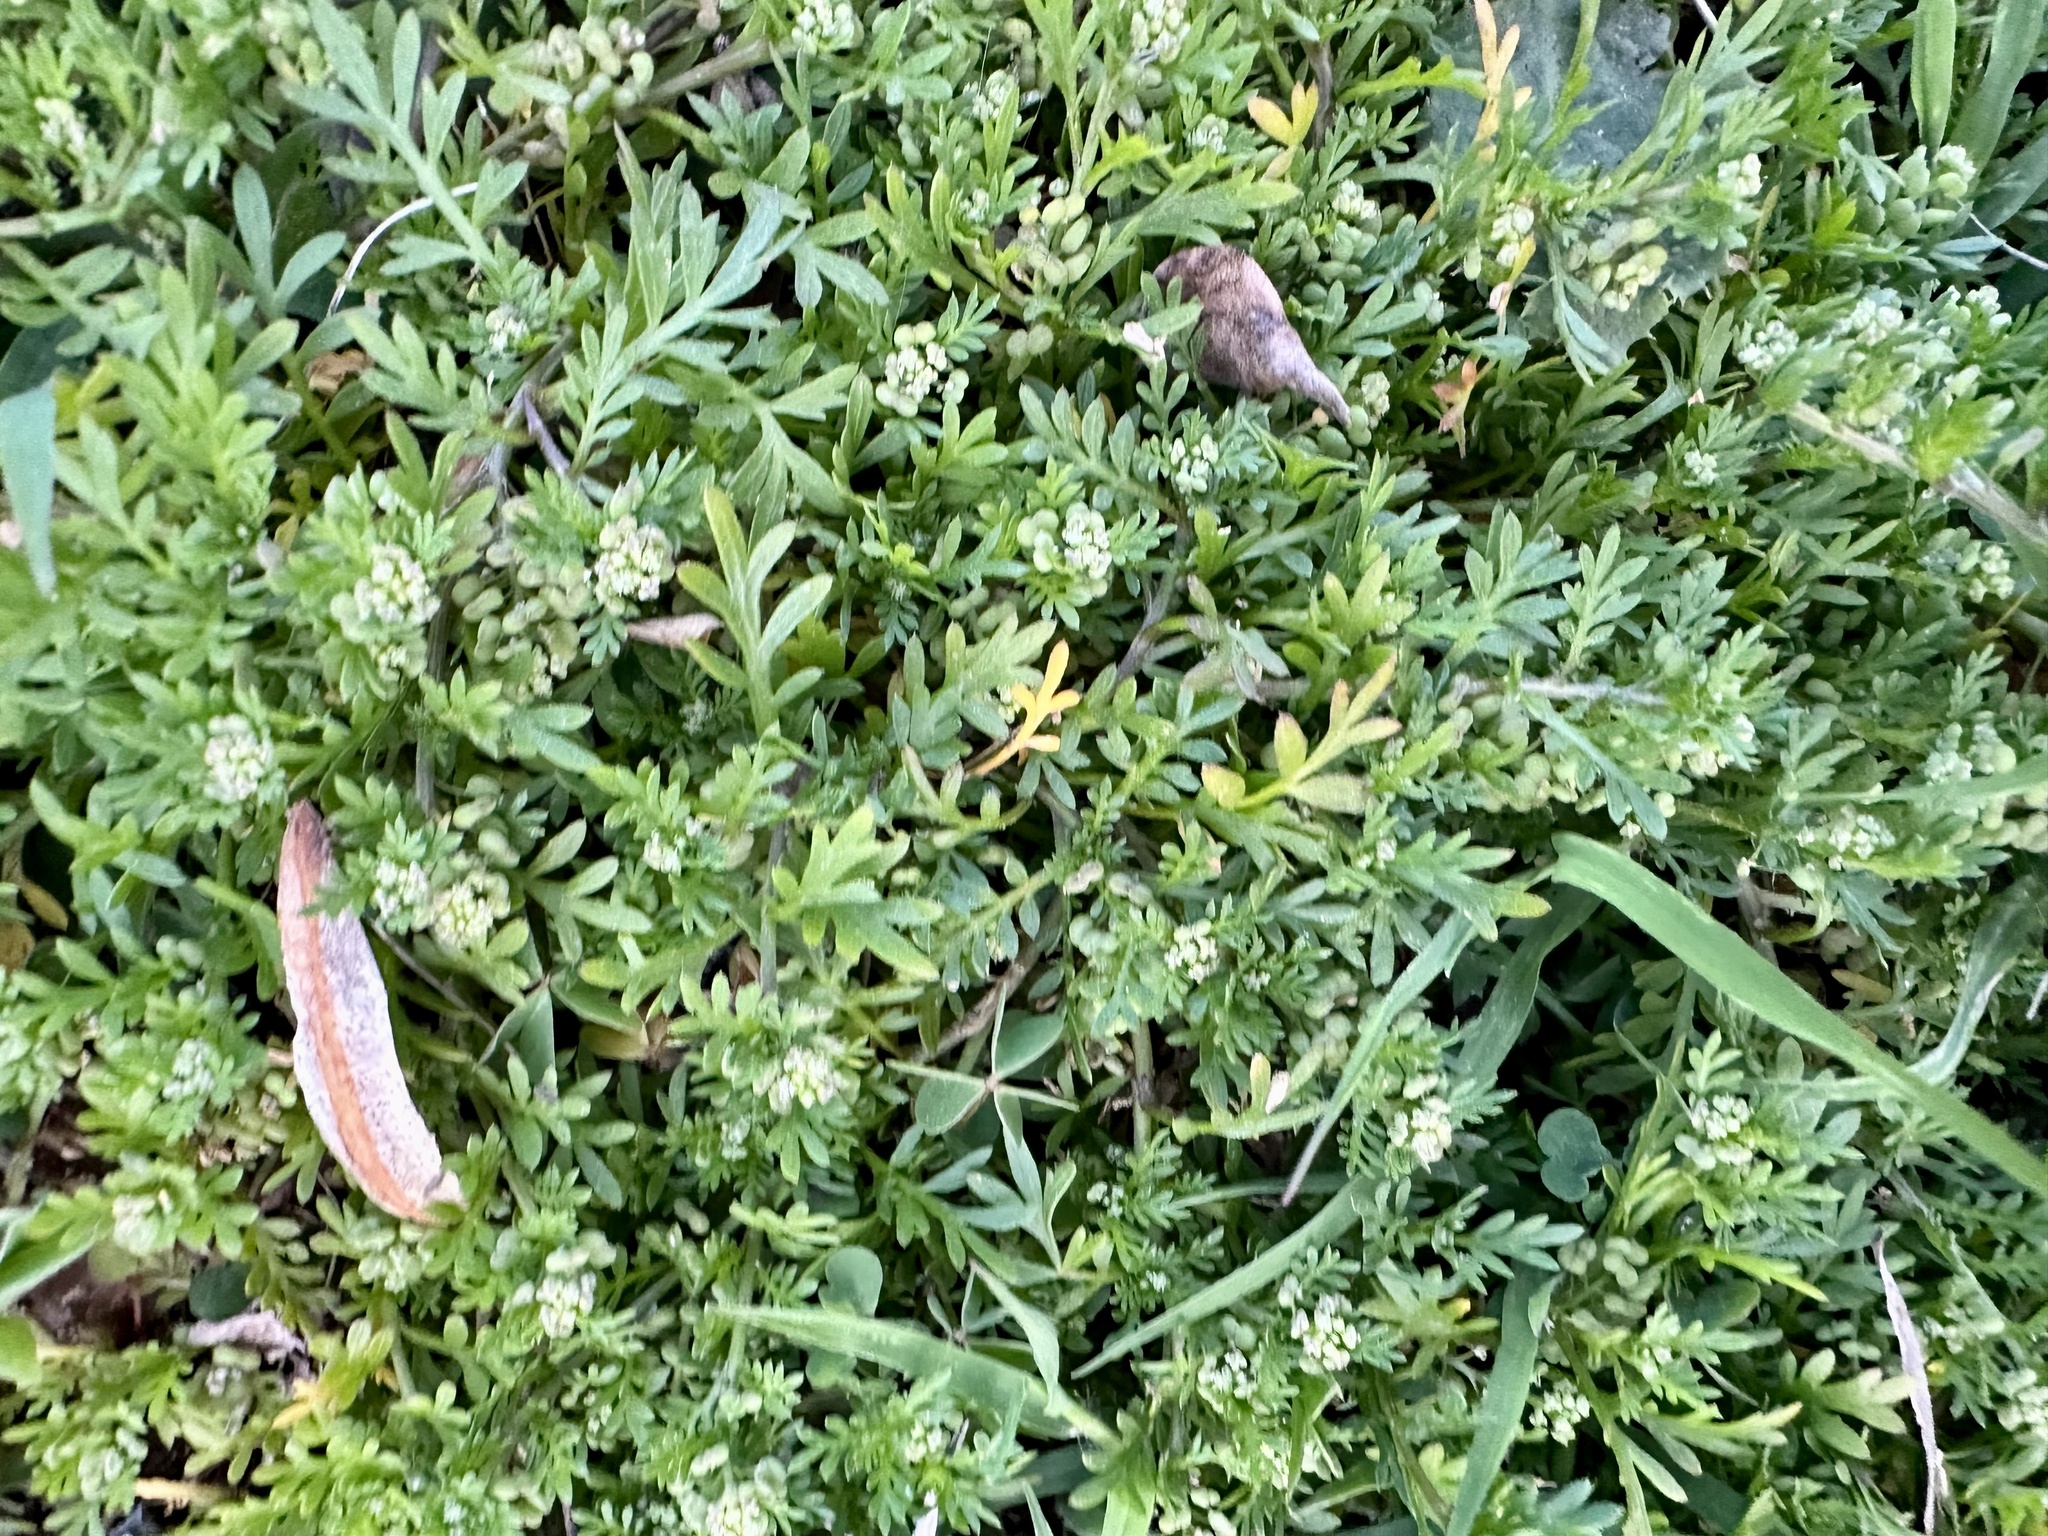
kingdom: Plantae
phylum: Tracheophyta
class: Magnoliopsida
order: Brassicales
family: Brassicaceae
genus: Lepidium
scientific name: Lepidium didymum
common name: Lesser swinecress
